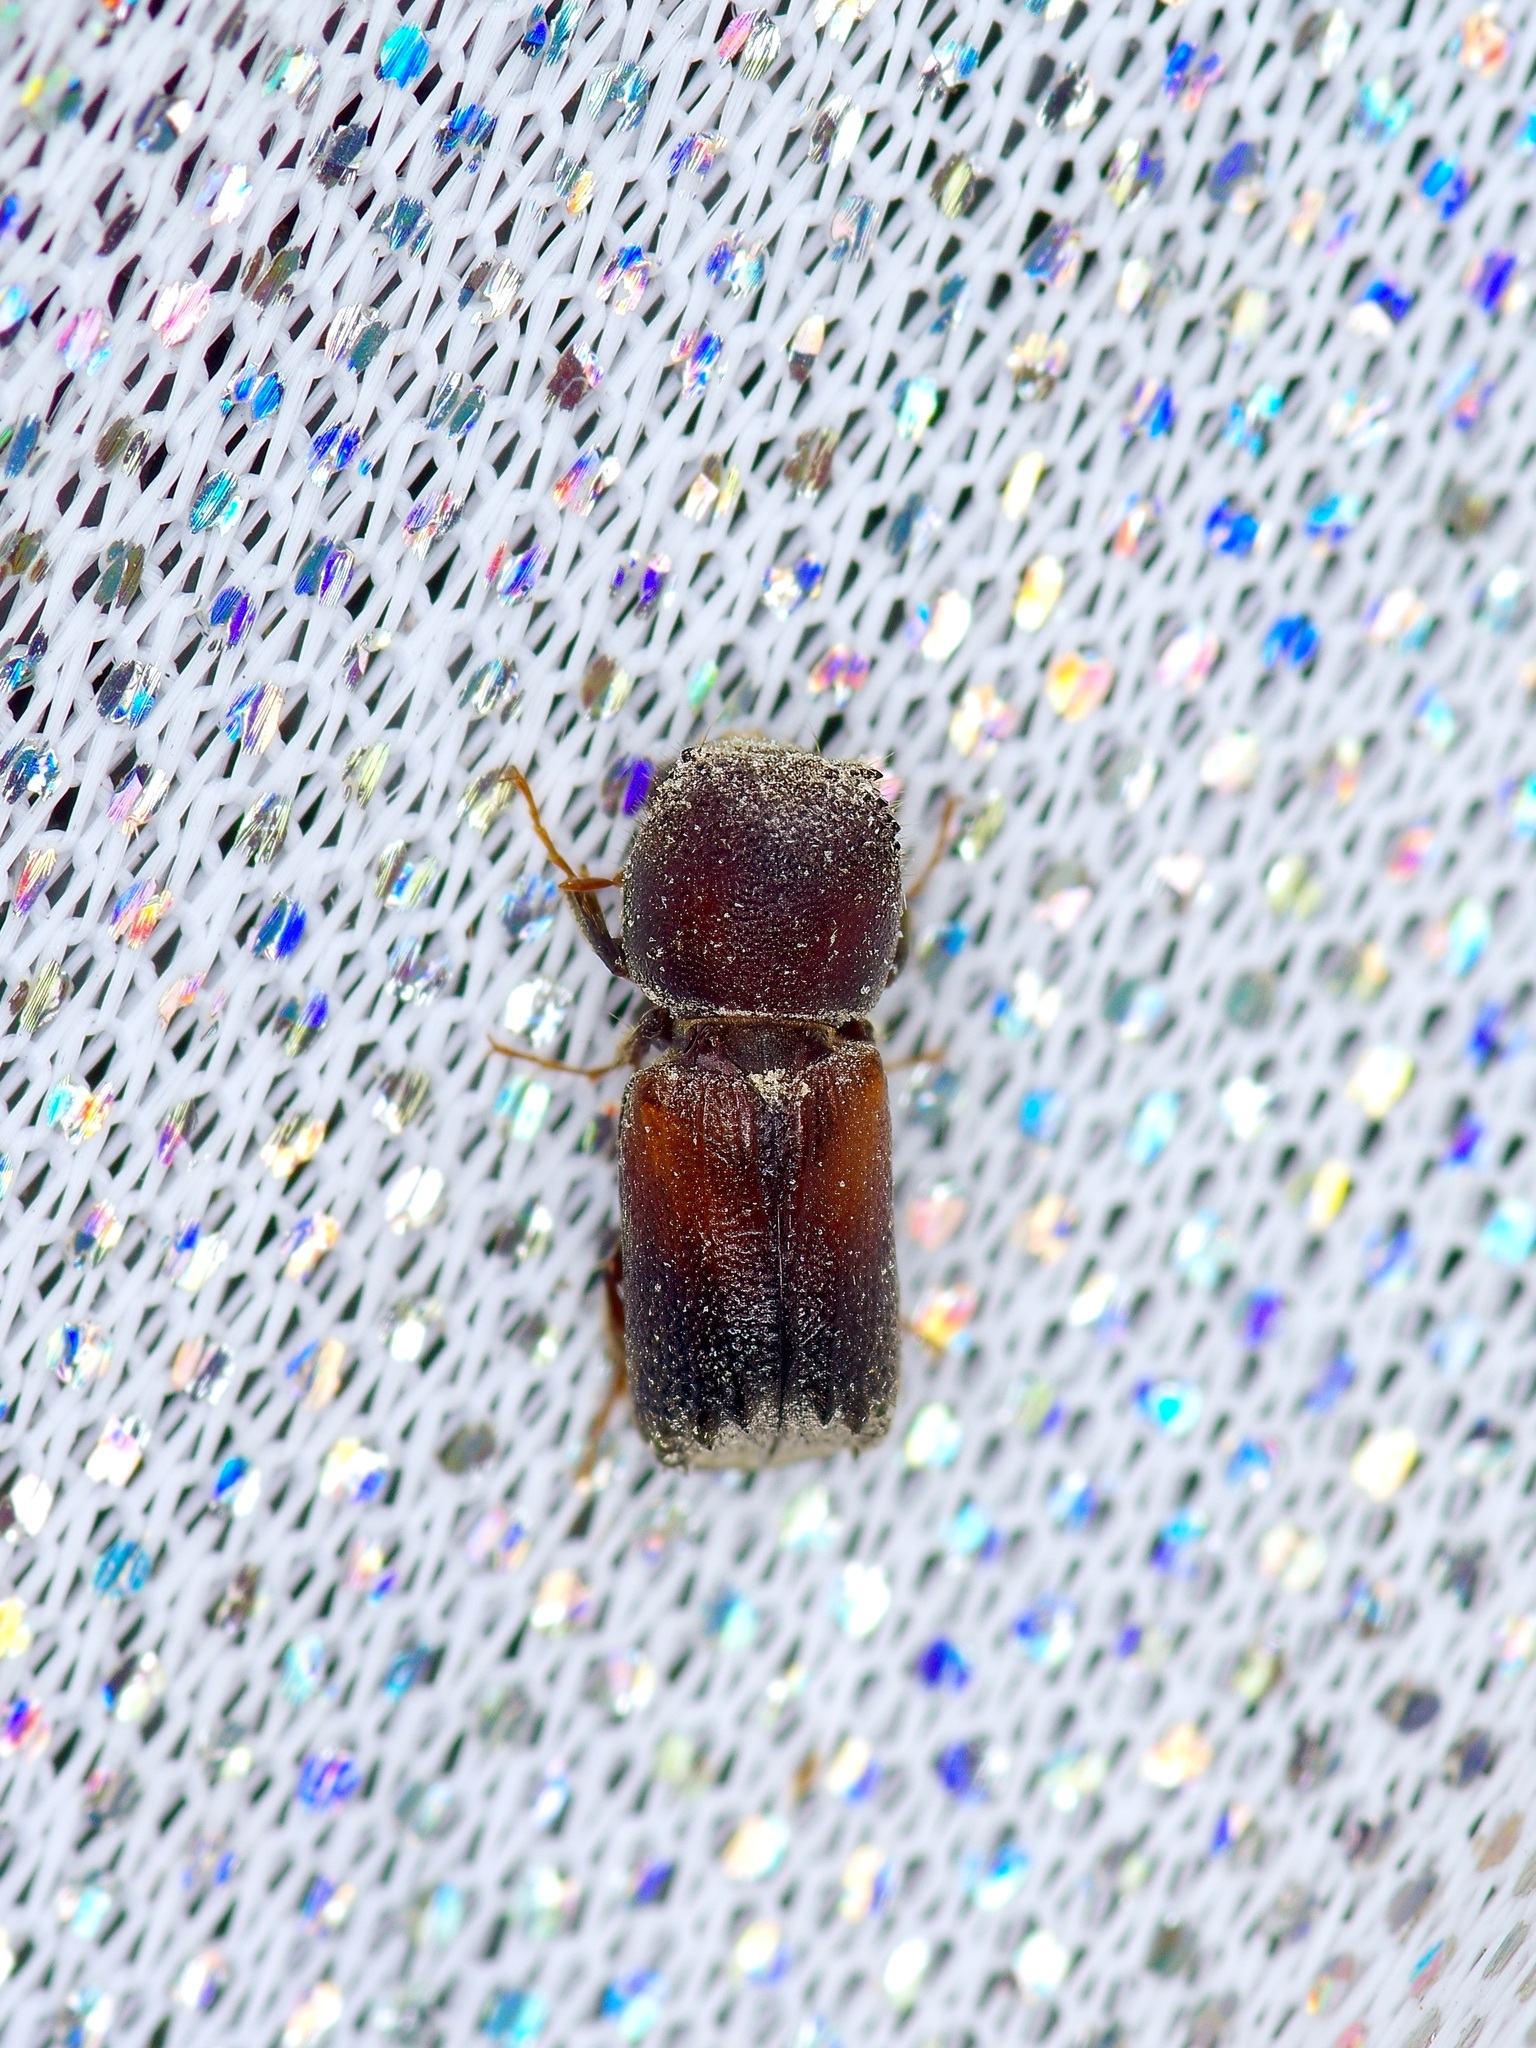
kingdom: Animalia
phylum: Arthropoda
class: Insecta
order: Coleoptera
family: Bostrichidae
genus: Xylobiops
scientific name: Xylobiops basilaris
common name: Red-shouldered bostrichid
